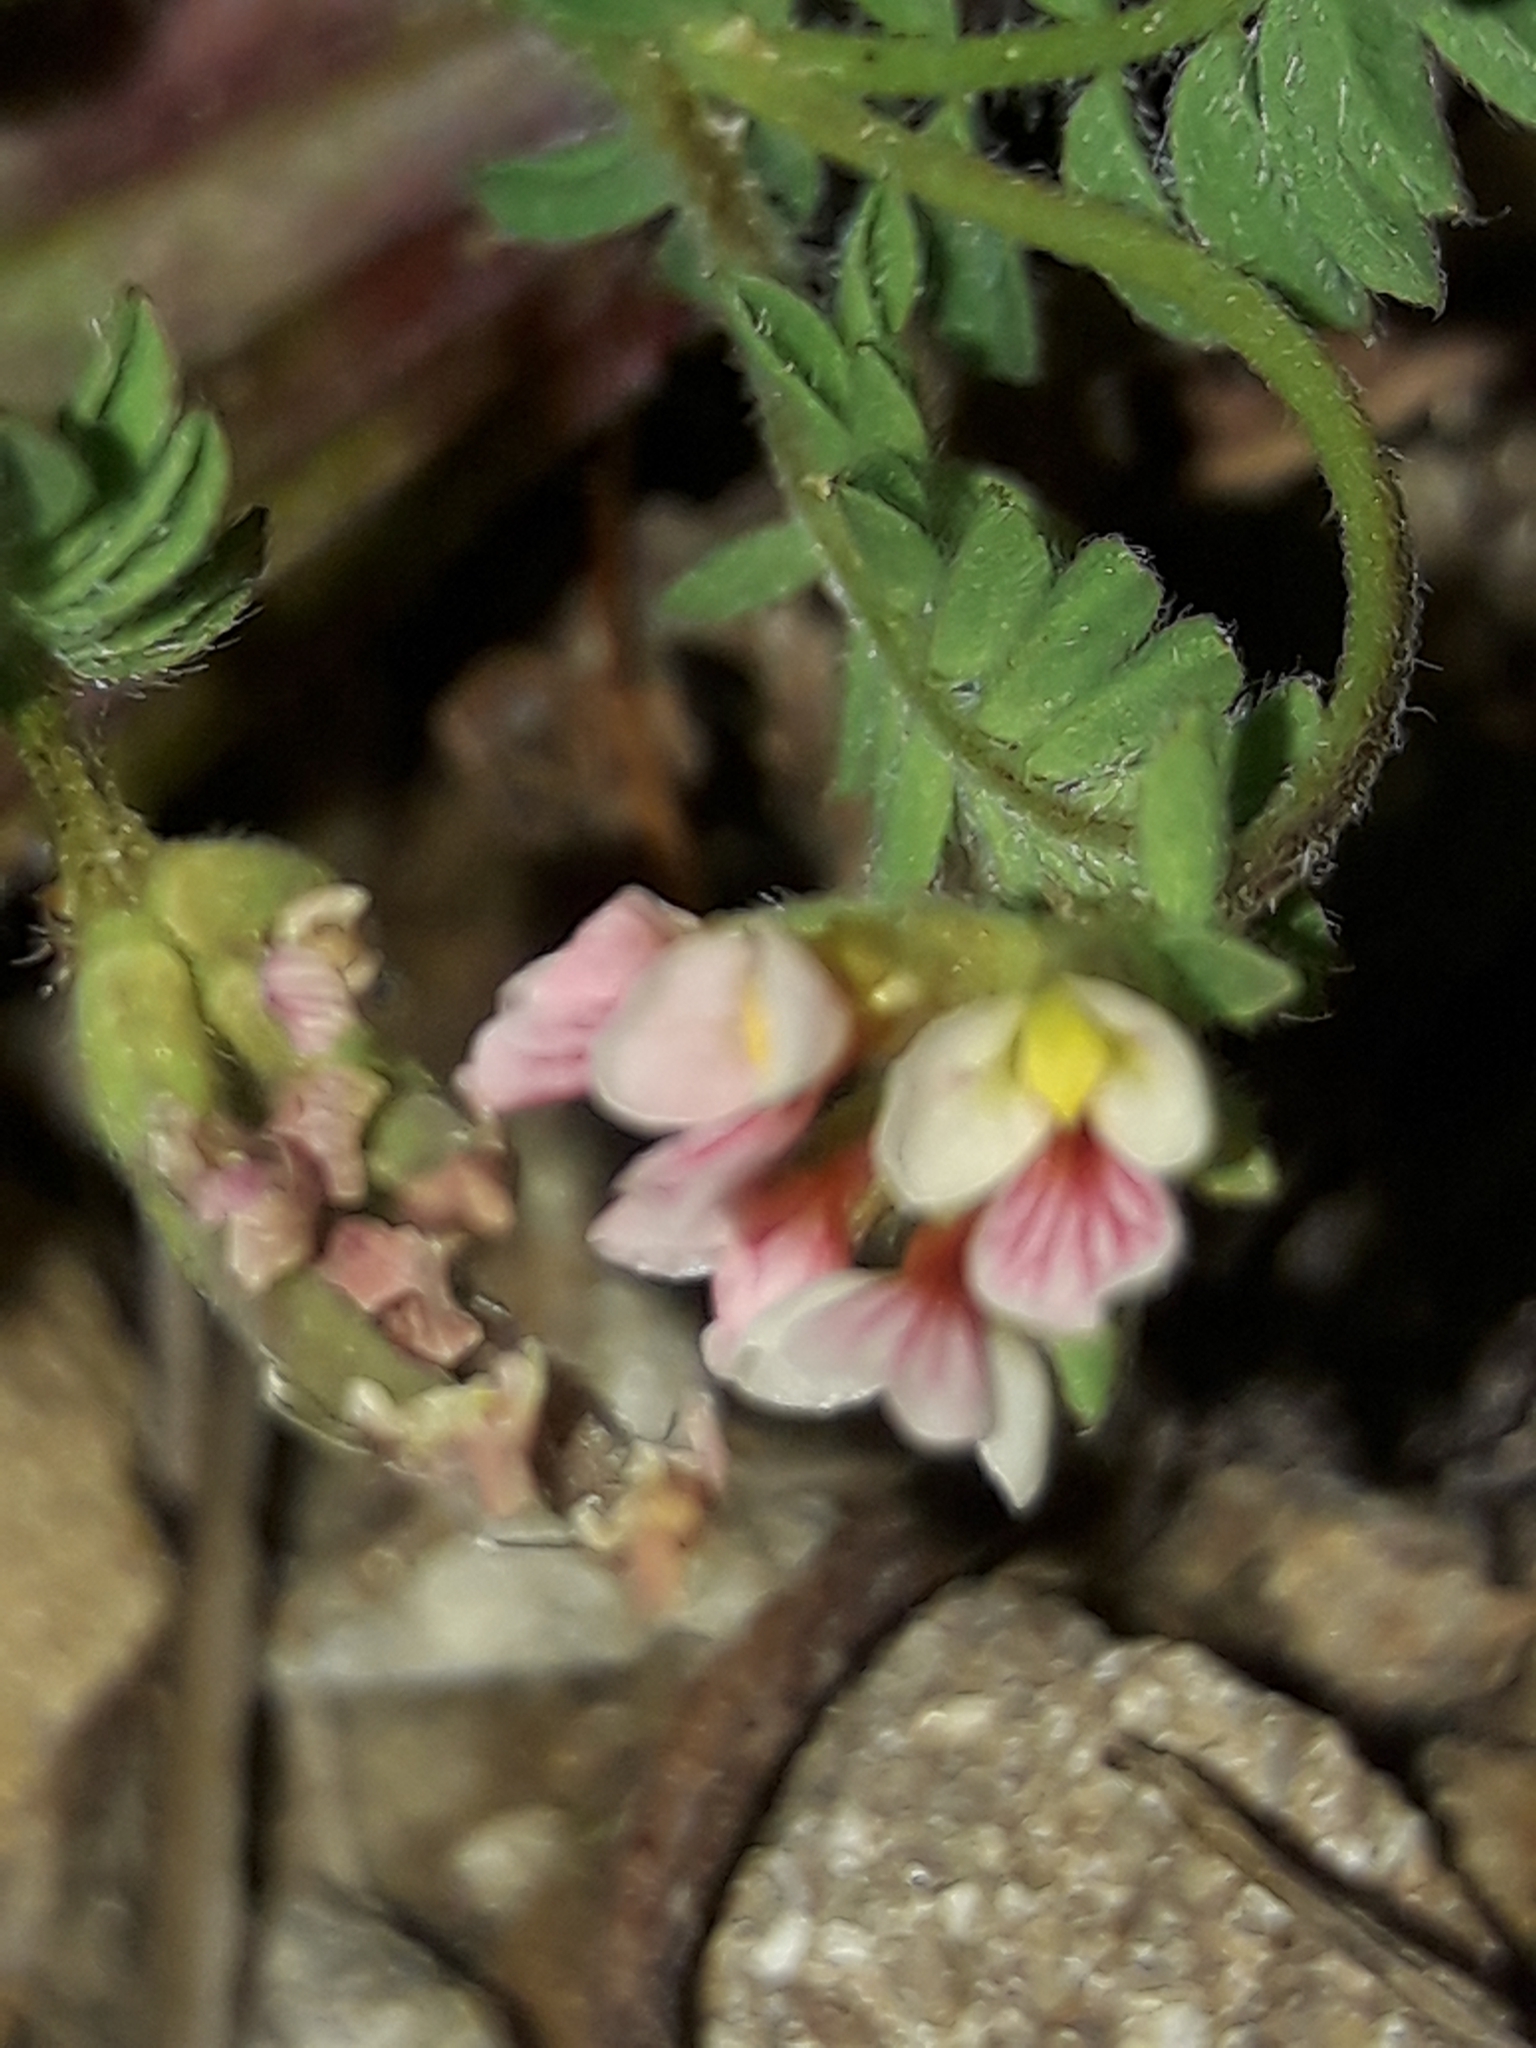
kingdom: Plantae
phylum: Tracheophyta
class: Magnoliopsida
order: Fabales
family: Fabaceae
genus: Ornithopus
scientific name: Ornithopus perpusillus
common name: Bird's-foot
